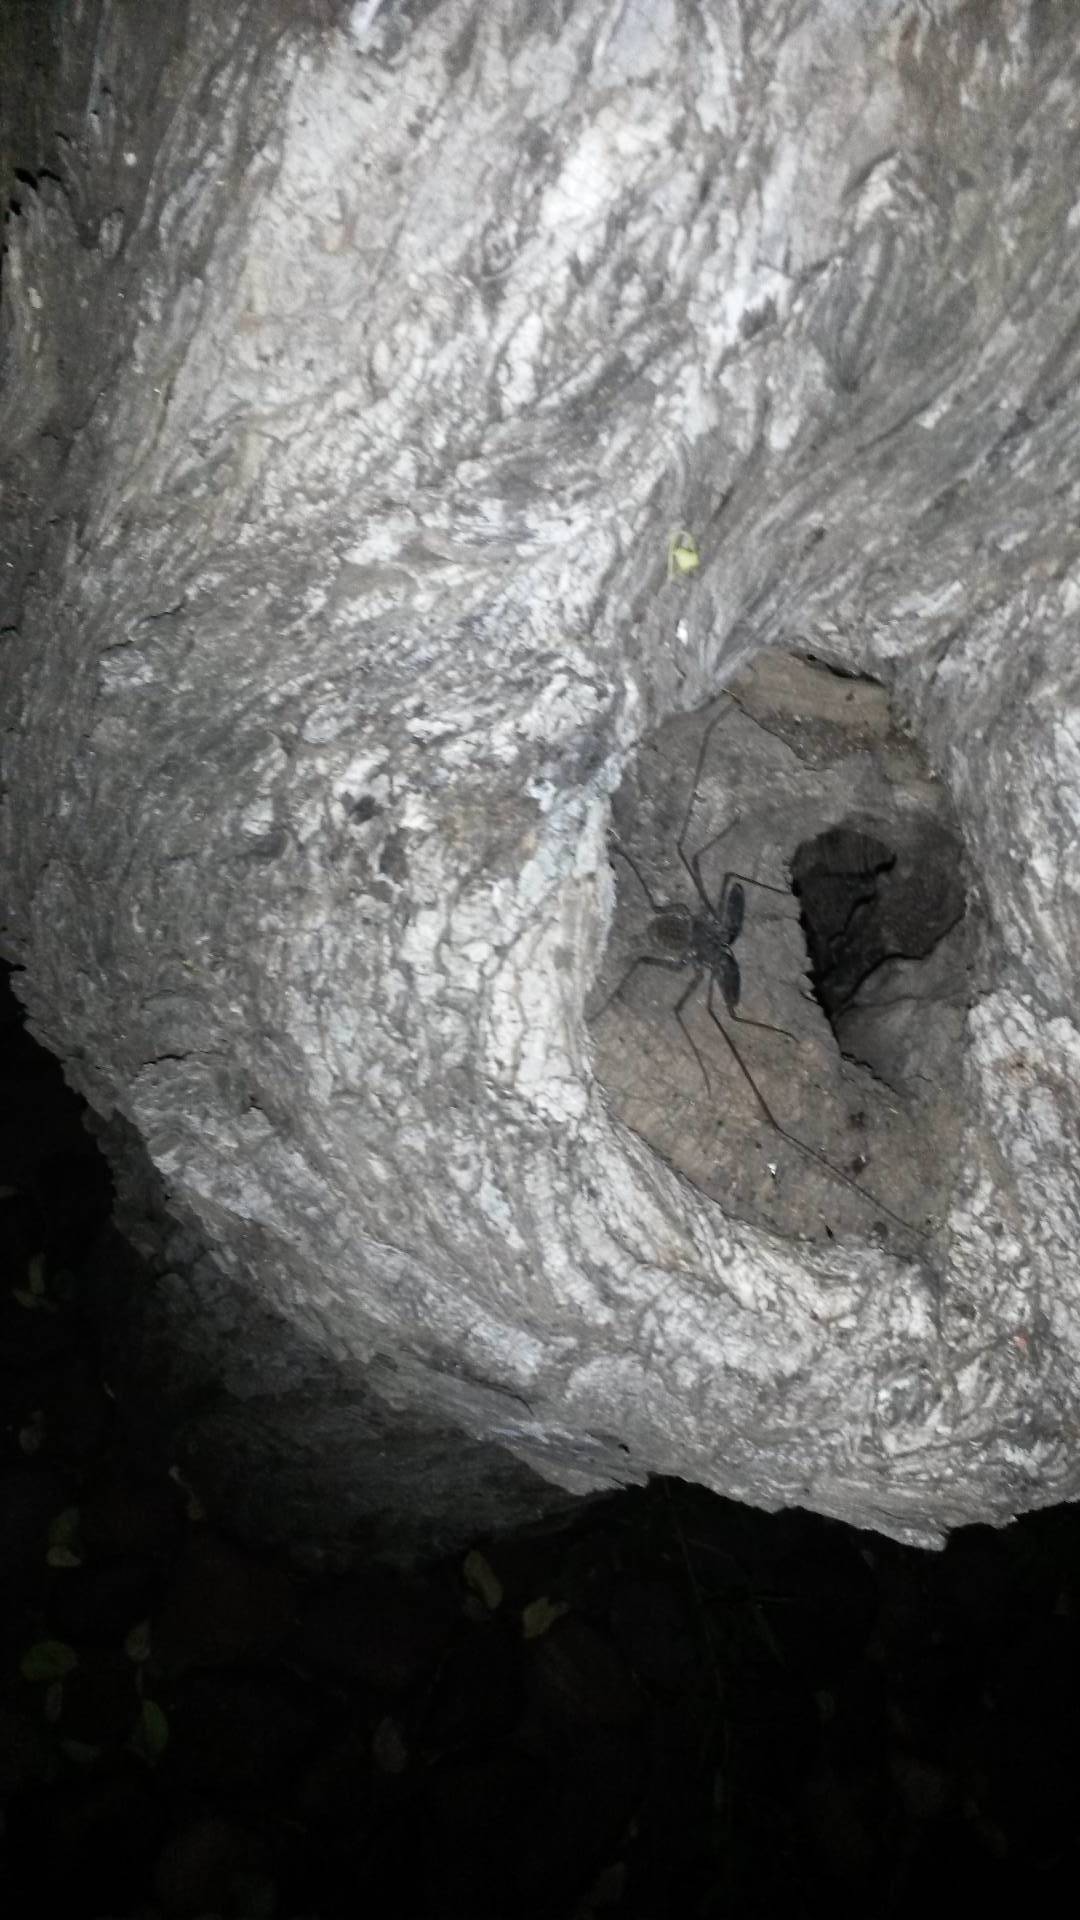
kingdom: Animalia
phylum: Arthropoda
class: Arachnida
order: Amblypygi
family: Phrynichidae
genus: Damon
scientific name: Damon variegatus
